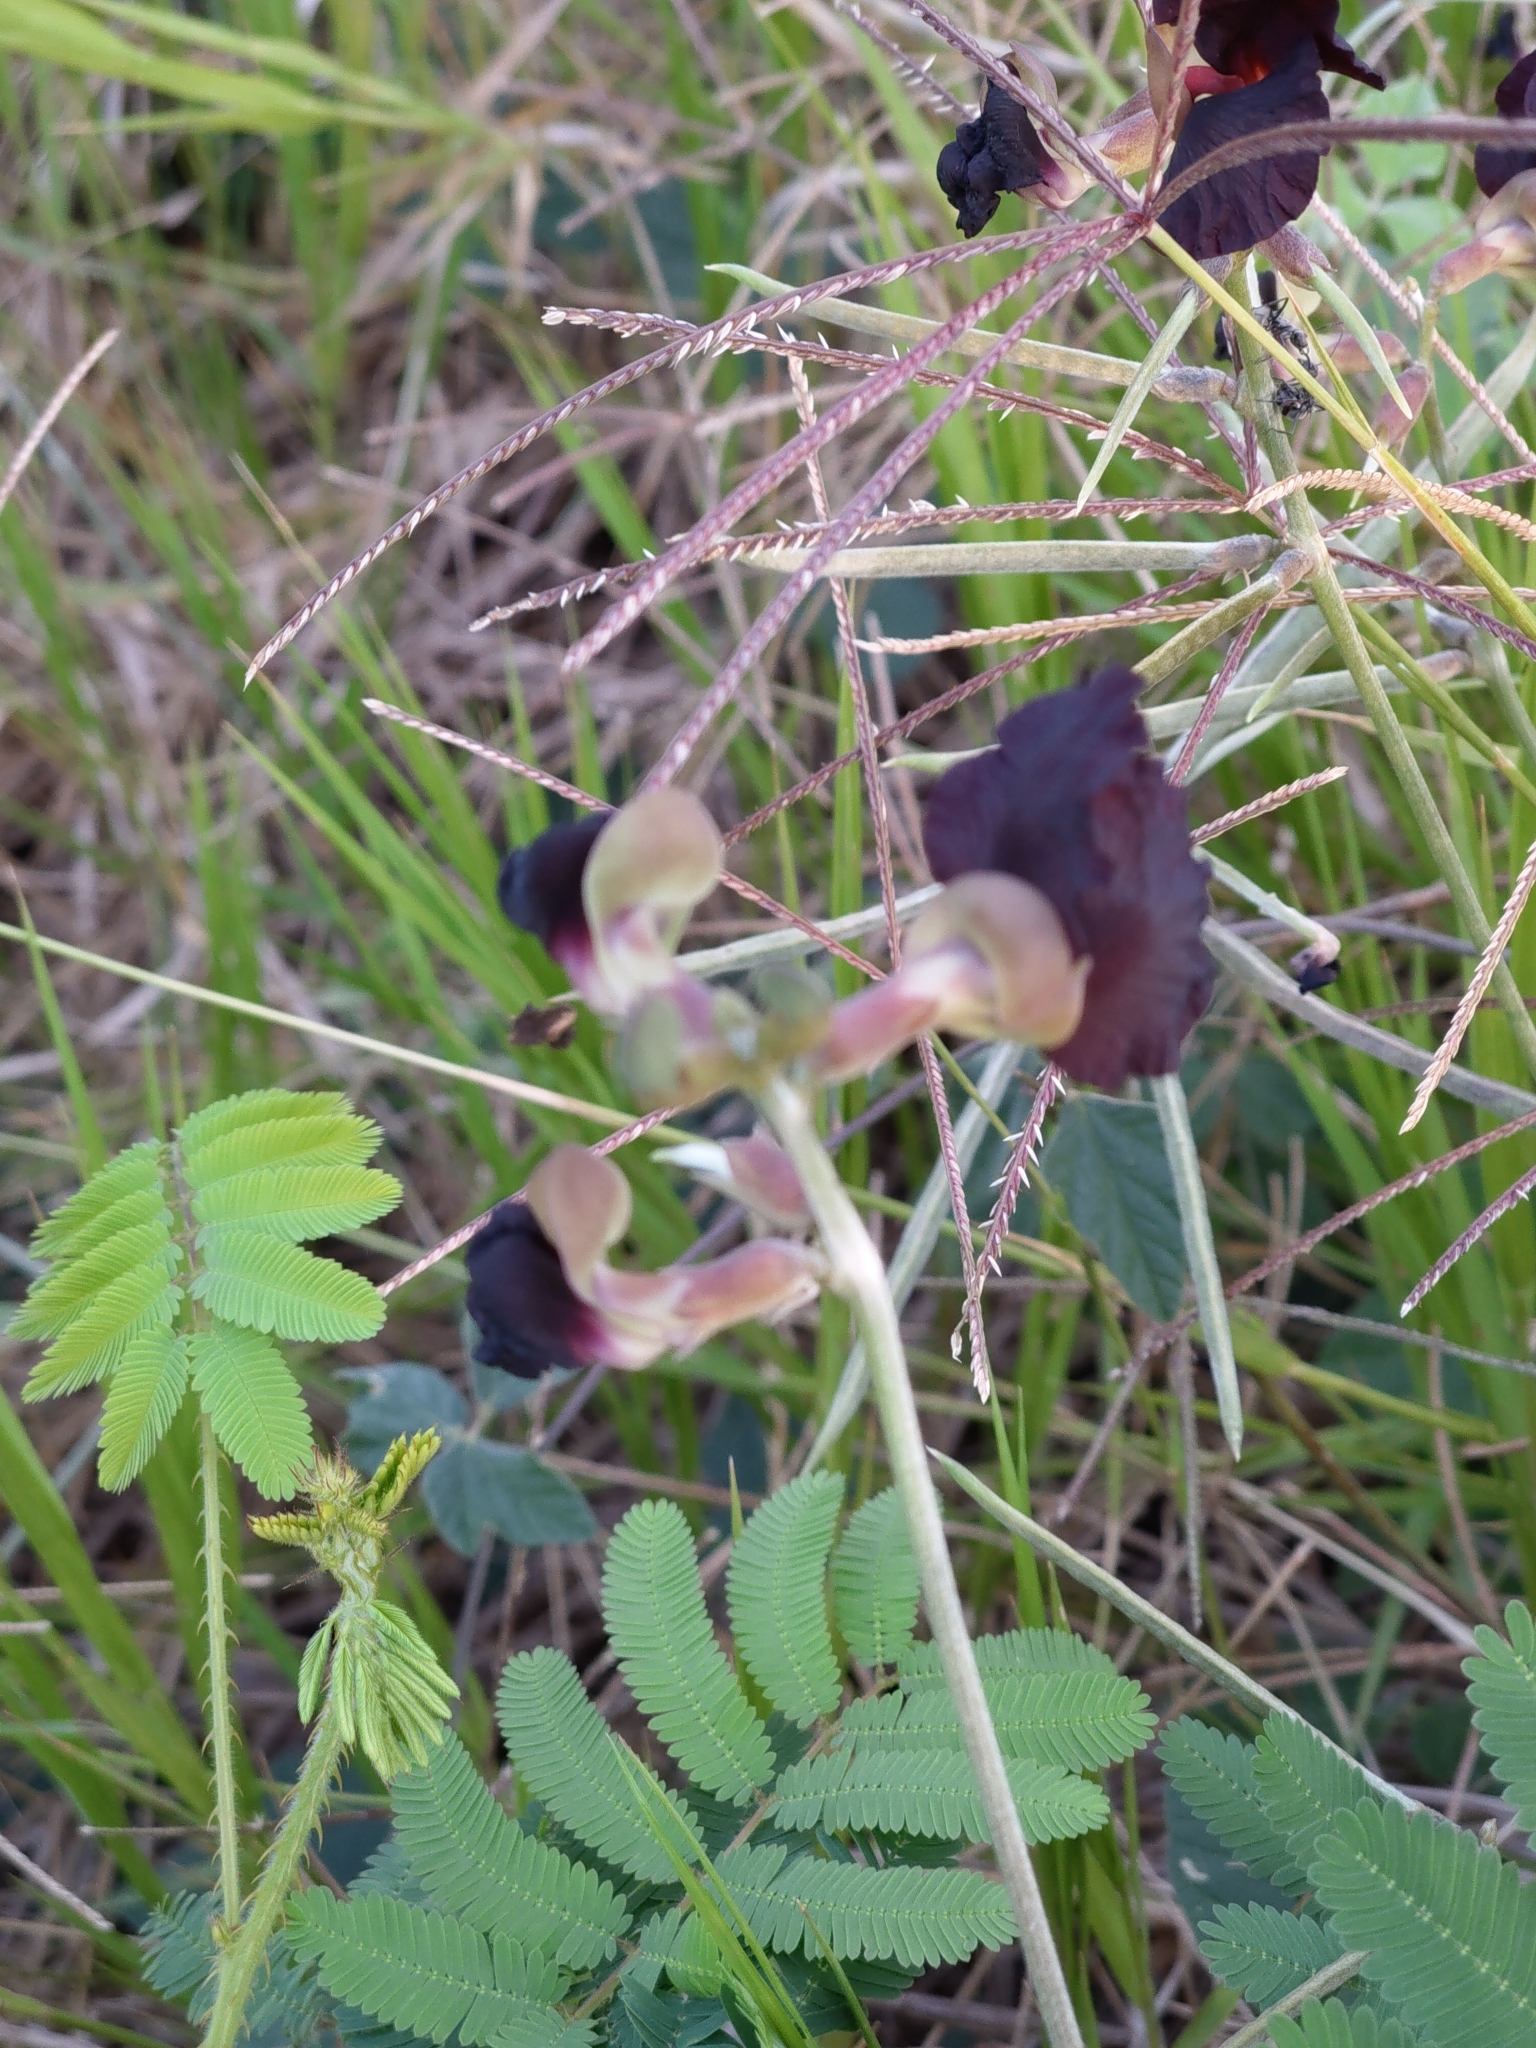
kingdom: Plantae
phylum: Tracheophyta
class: Magnoliopsida
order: Fabales
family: Fabaceae
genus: Macroptilium
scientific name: Macroptilium atropurpureum
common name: Purple bushbean
